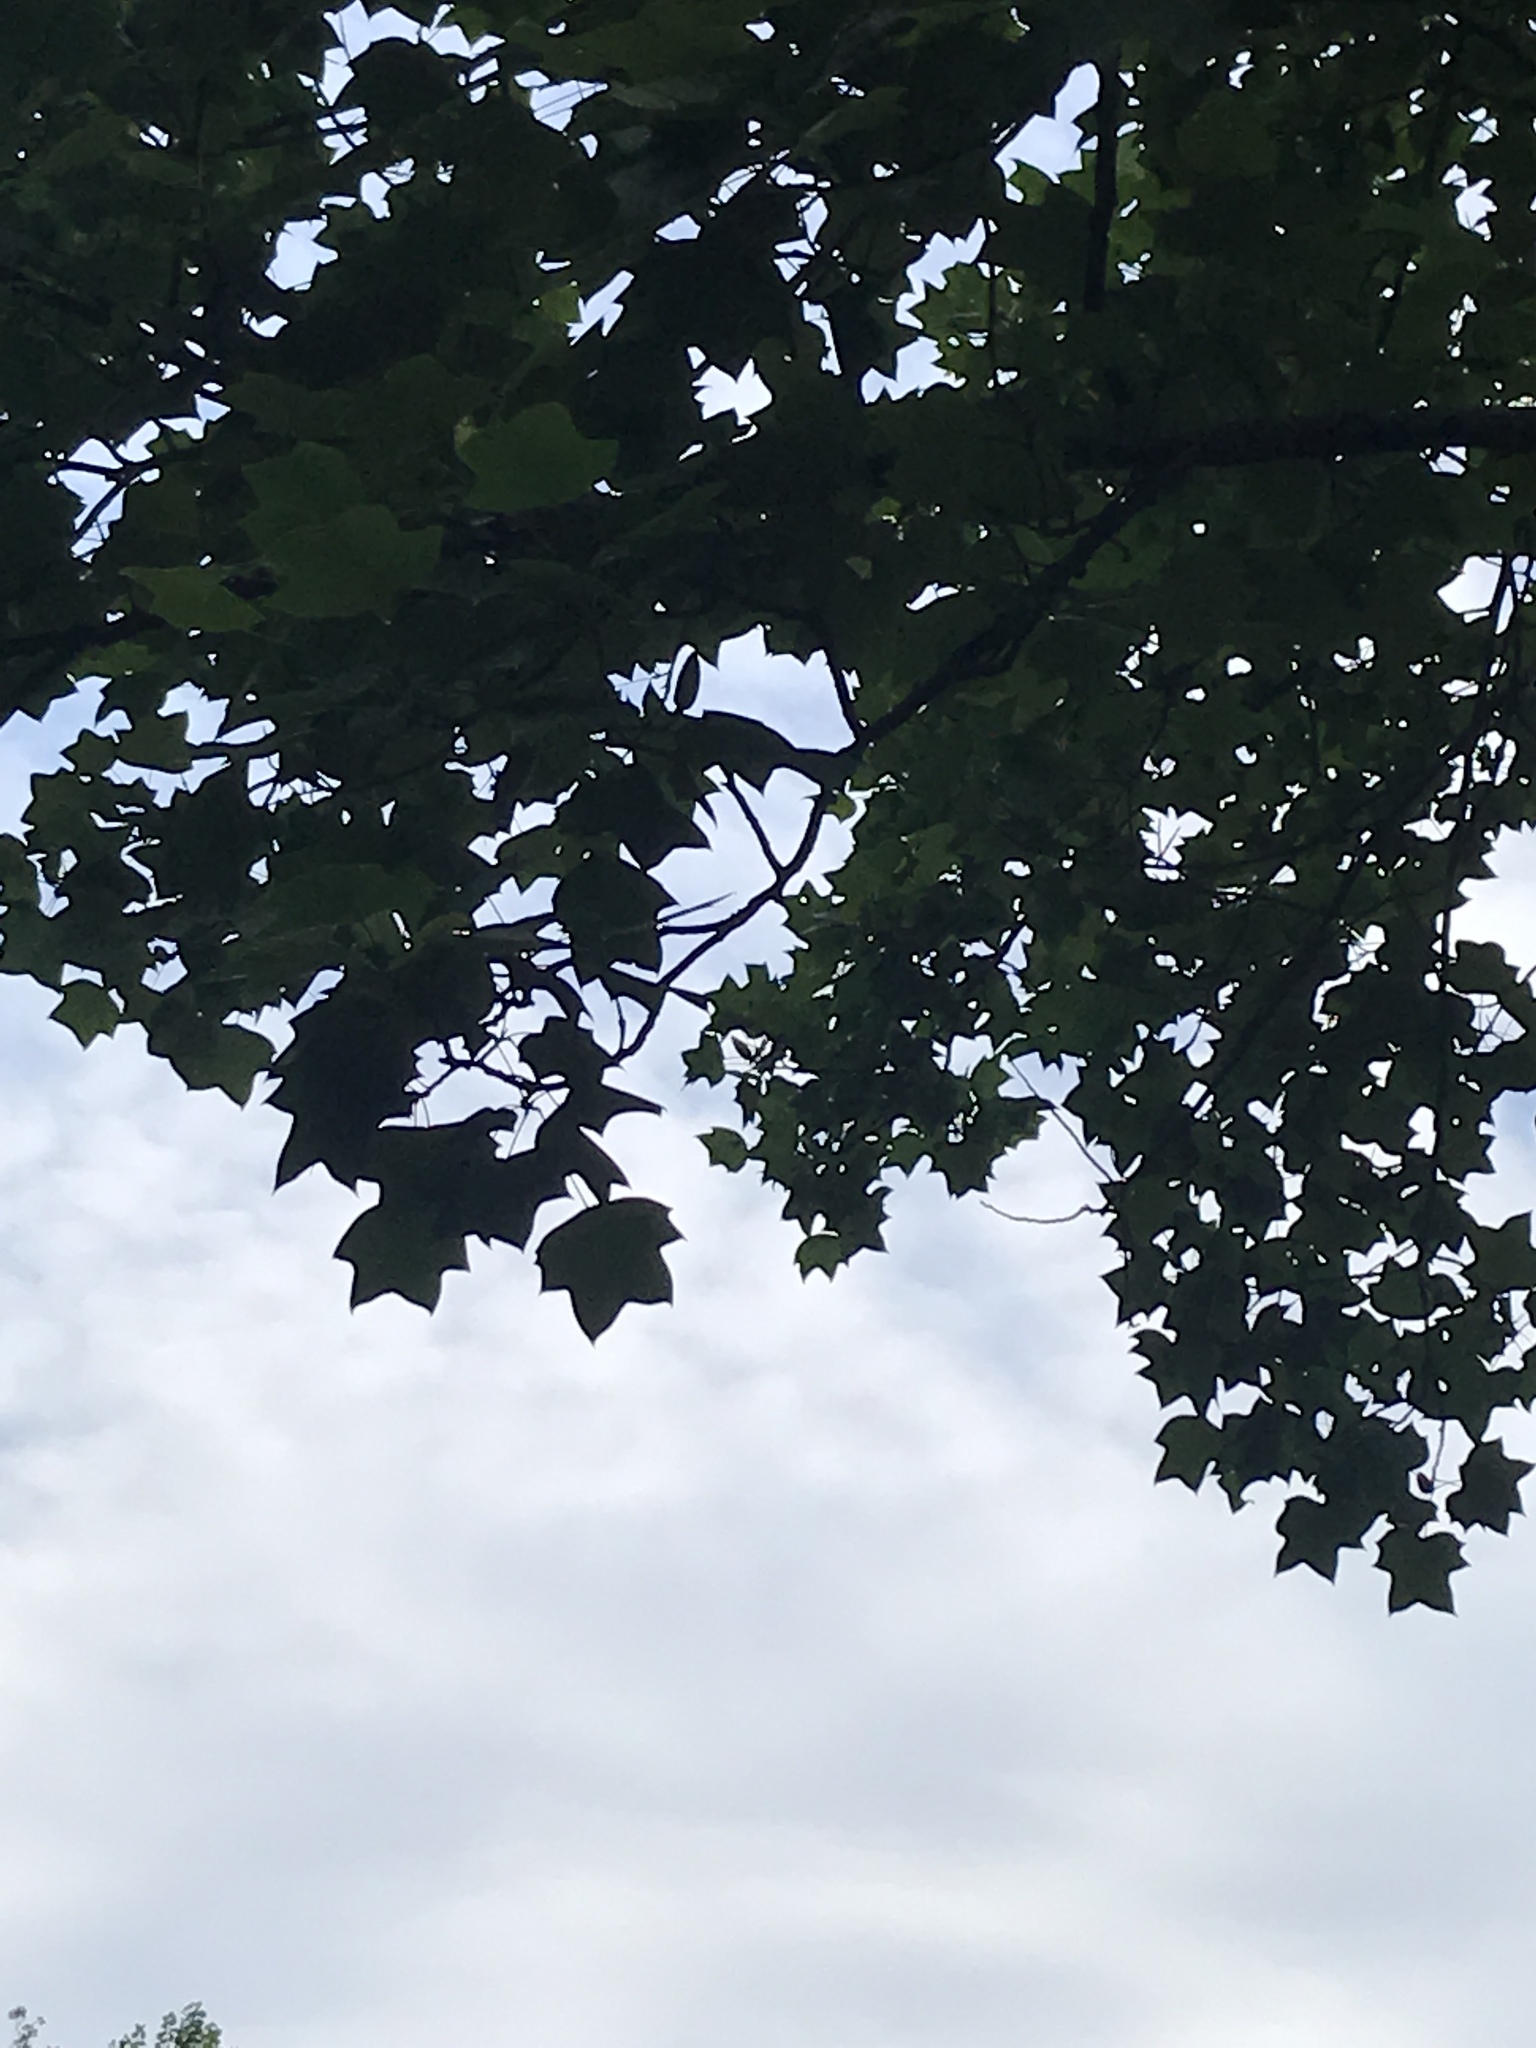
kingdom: Plantae
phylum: Tracheophyta
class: Magnoliopsida
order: Magnoliales
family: Magnoliaceae
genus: Liriodendron
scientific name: Liriodendron tulipifera
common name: Tulip tree
